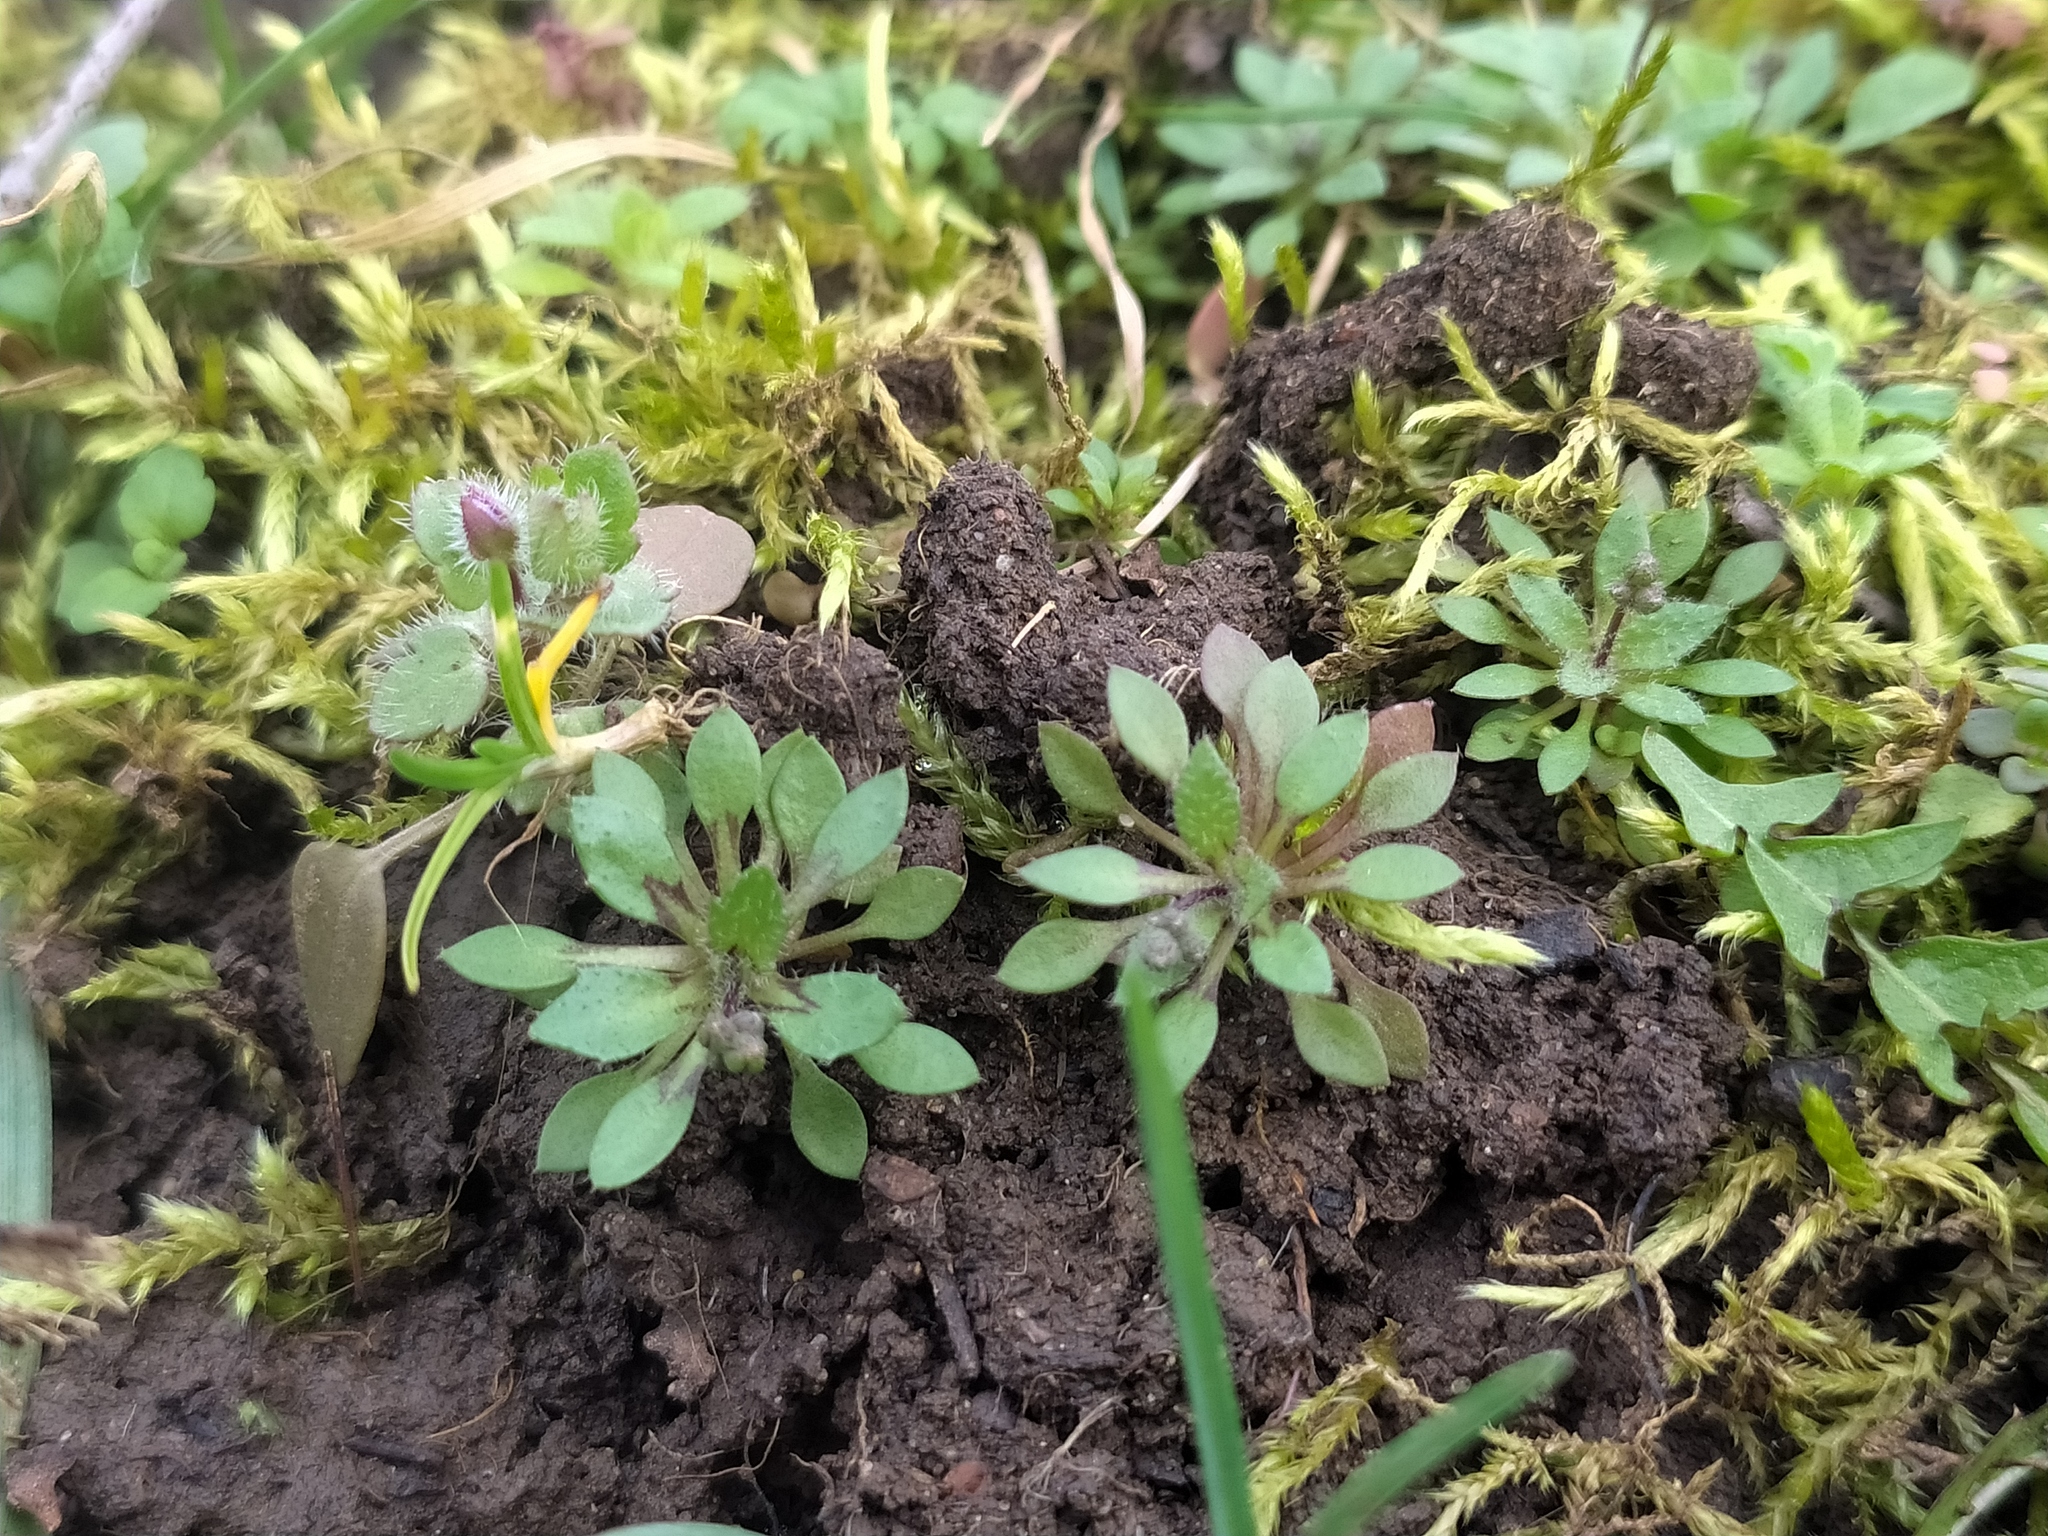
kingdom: Plantae
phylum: Tracheophyta
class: Magnoliopsida
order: Brassicales
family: Brassicaceae
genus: Draba
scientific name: Draba verna
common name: Spring draba
